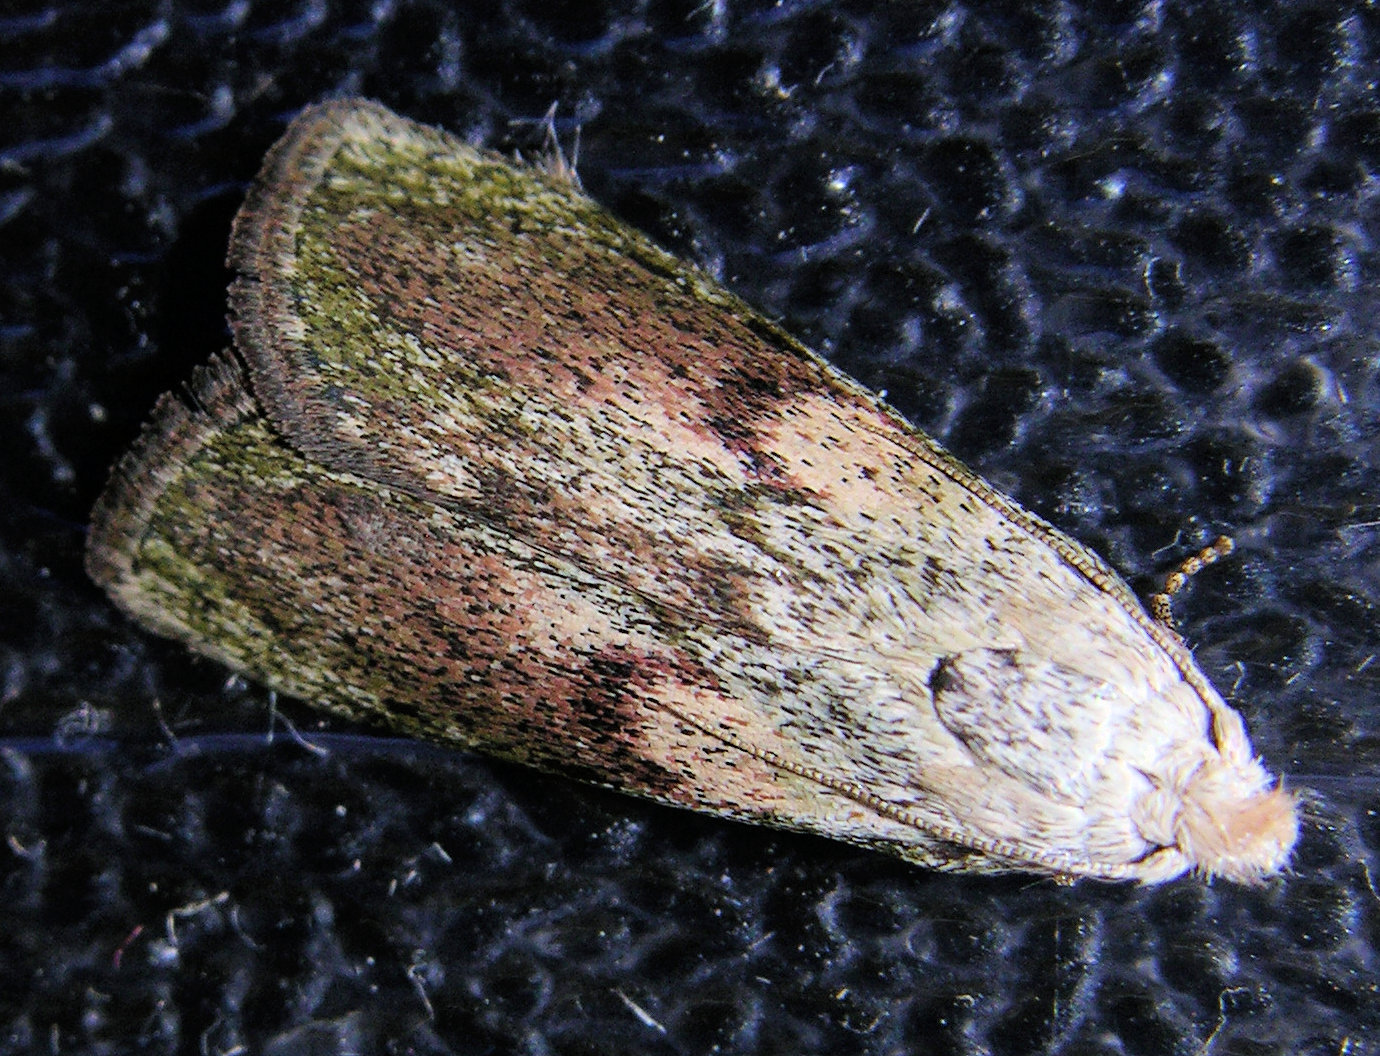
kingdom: Animalia
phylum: Arthropoda
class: Insecta
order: Lepidoptera
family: Pyralidae
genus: Aphomia
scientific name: Aphomia sociella
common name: Bee moth
